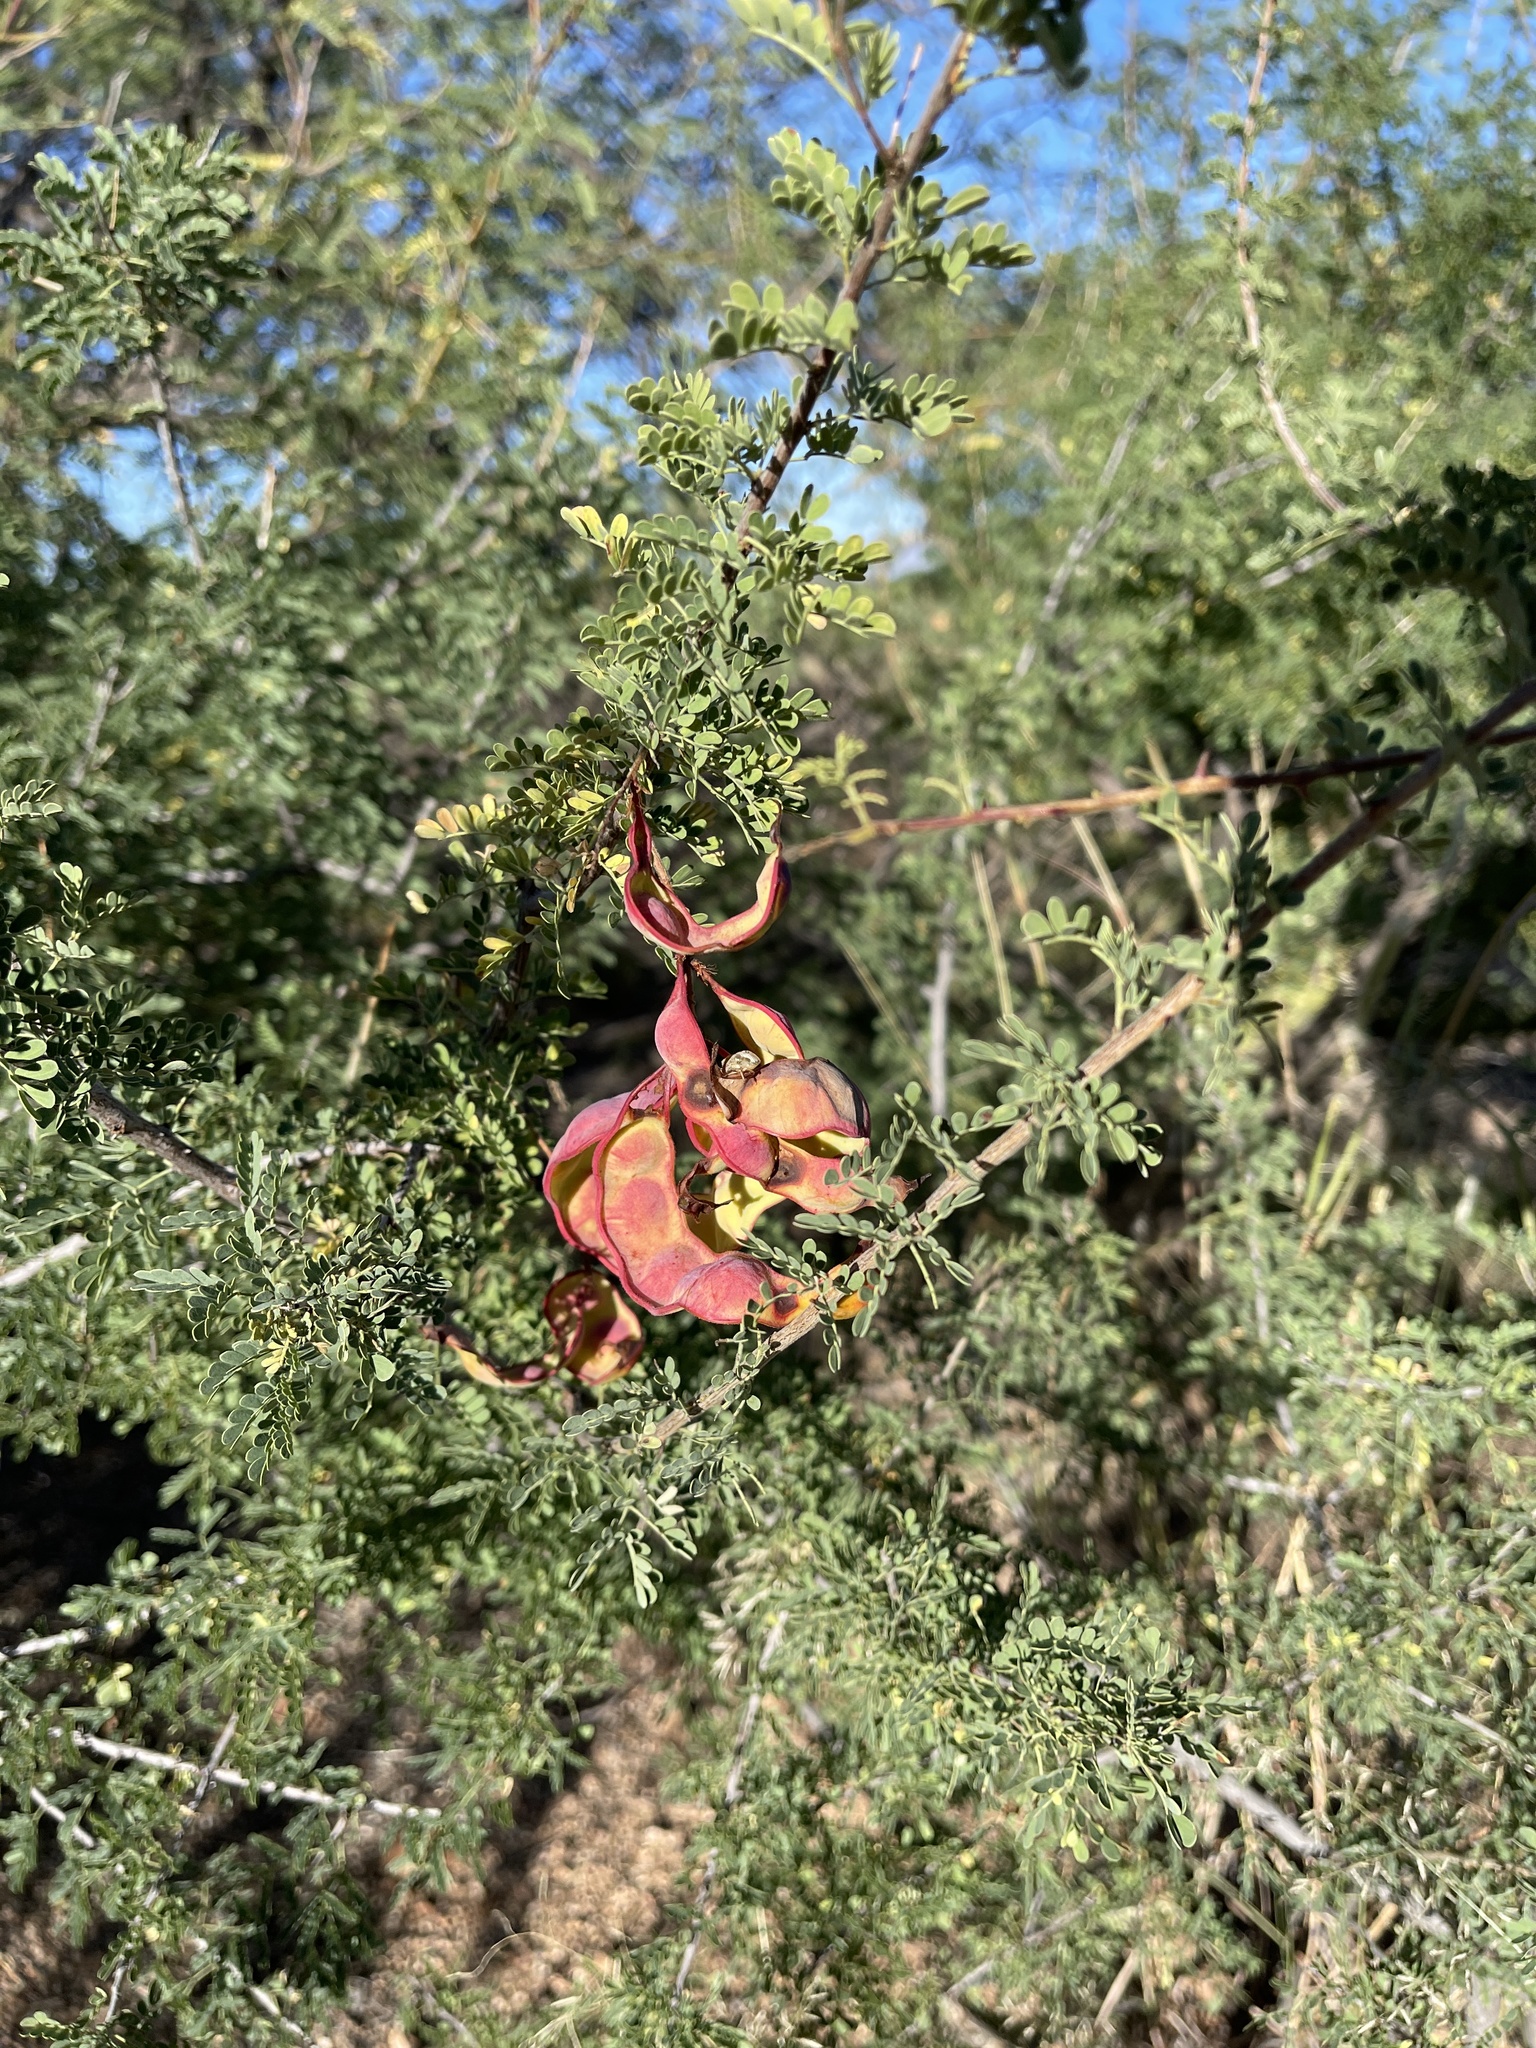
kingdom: Plantae
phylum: Tracheophyta
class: Magnoliopsida
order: Fabales
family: Fabaceae
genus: Senegalia
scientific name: Senegalia greggii
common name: Texas-mimosa
